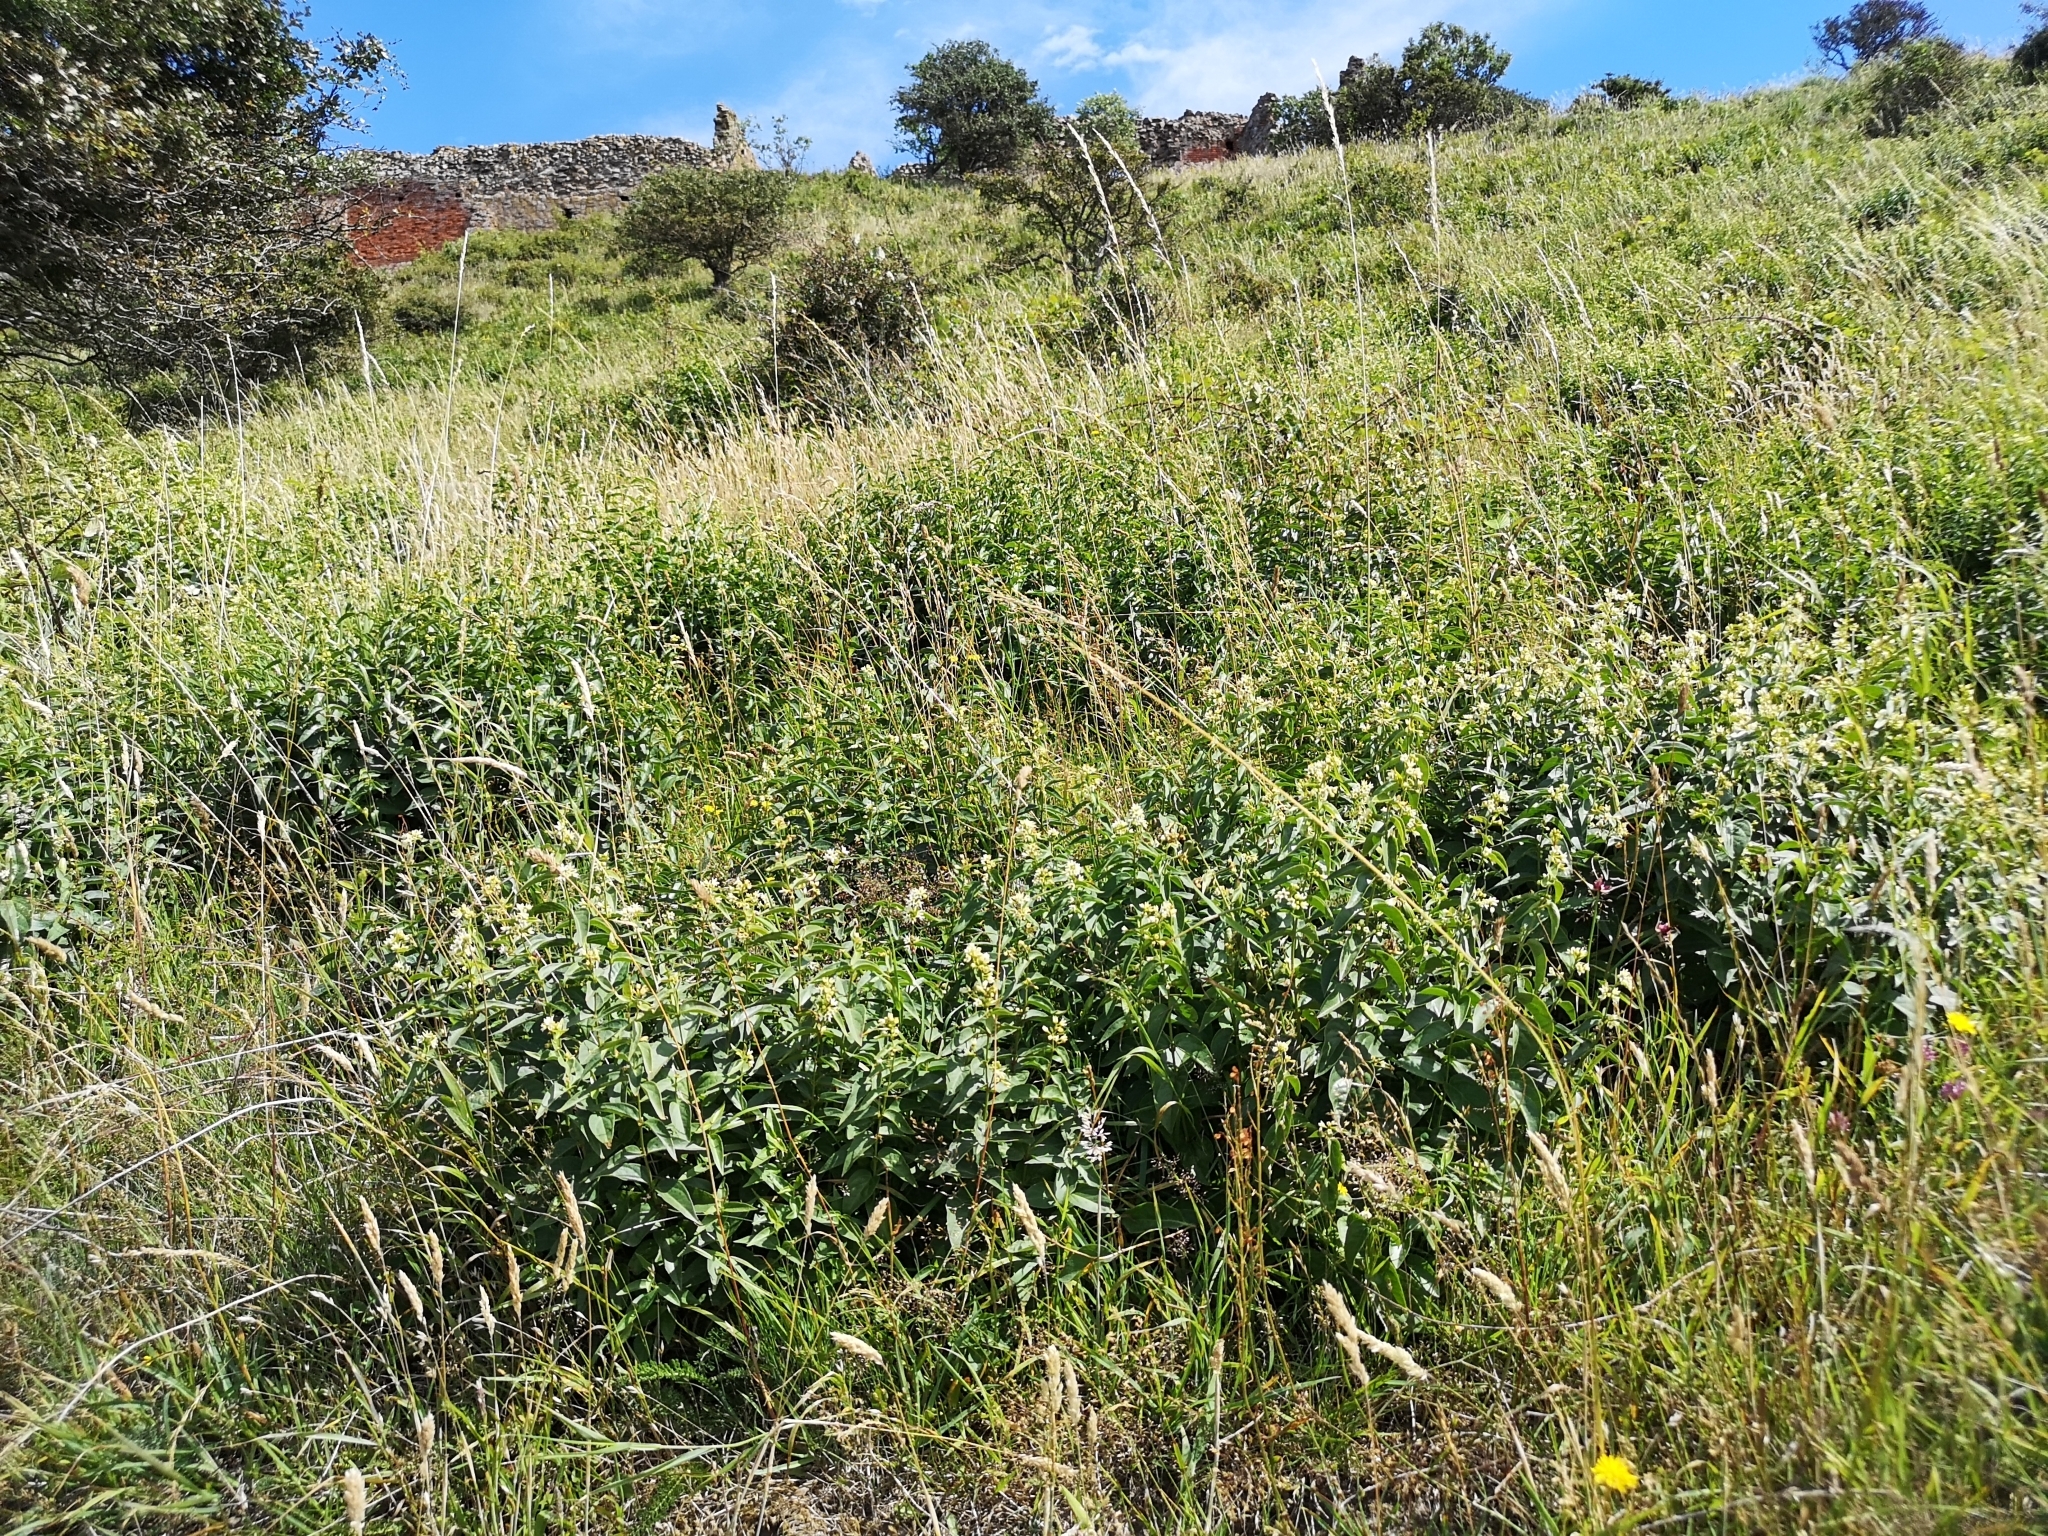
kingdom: Plantae
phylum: Tracheophyta
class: Magnoliopsida
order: Gentianales
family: Apocynaceae
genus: Vincetoxicum
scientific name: Vincetoxicum hirundinaria
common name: White swallowwort
